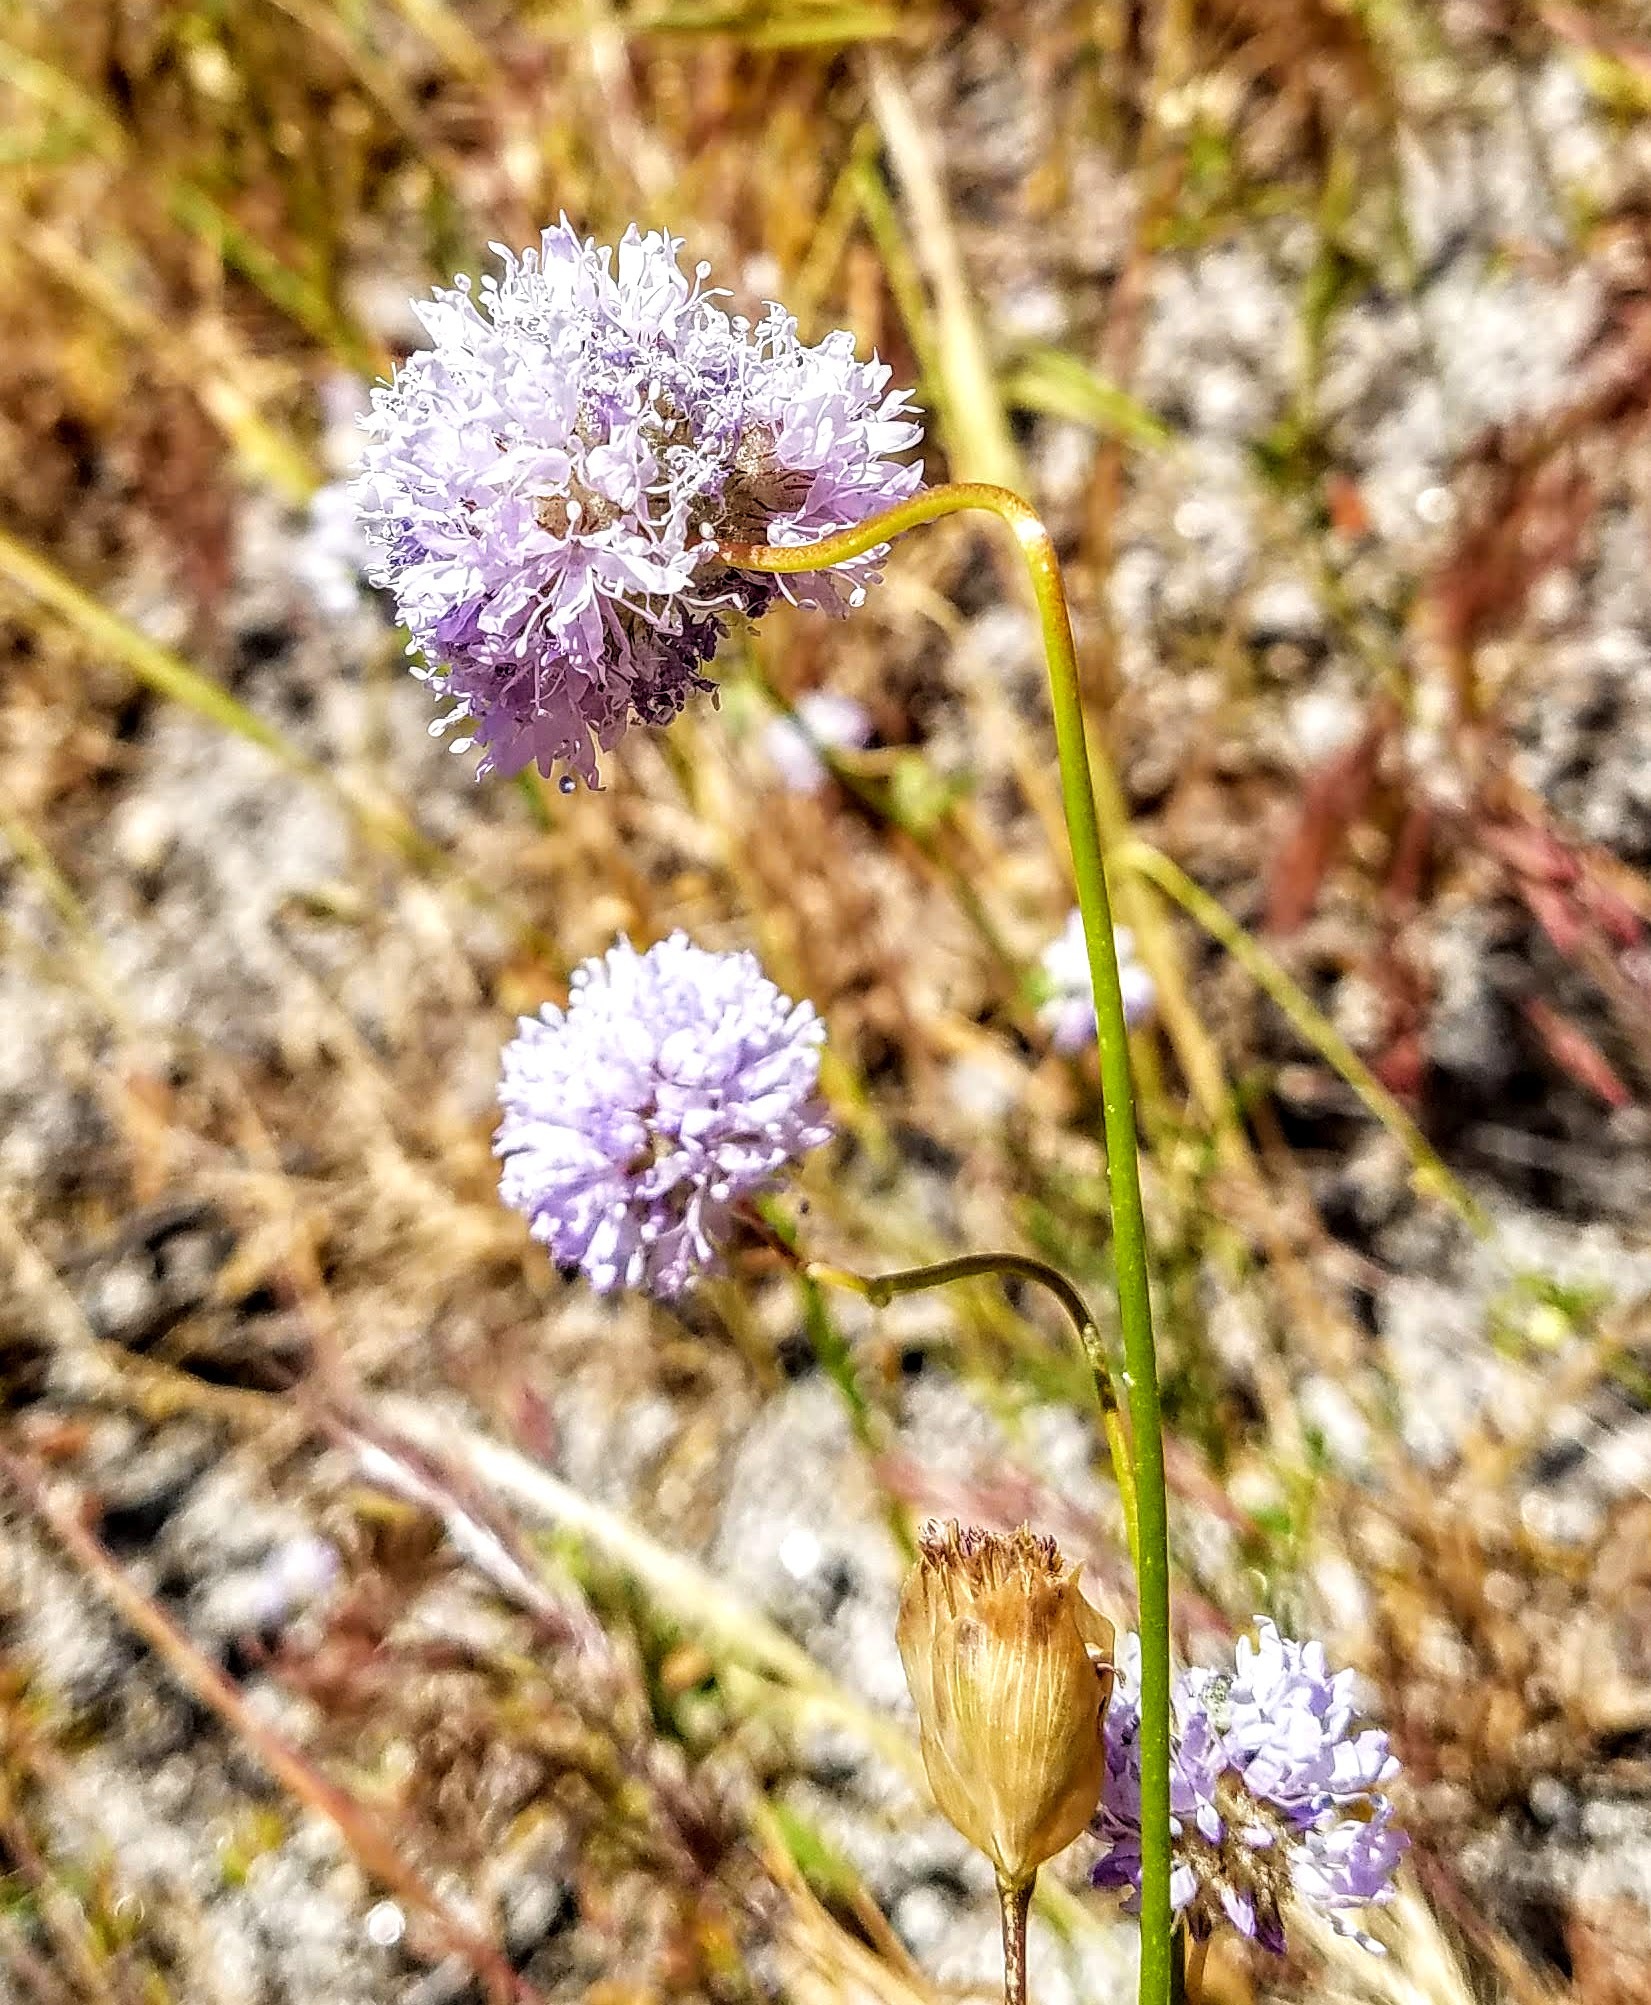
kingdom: Plantae
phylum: Tracheophyta
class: Magnoliopsida
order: Ericales
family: Polemoniaceae
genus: Gilia
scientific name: Gilia capitata
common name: Bluehead gilia
